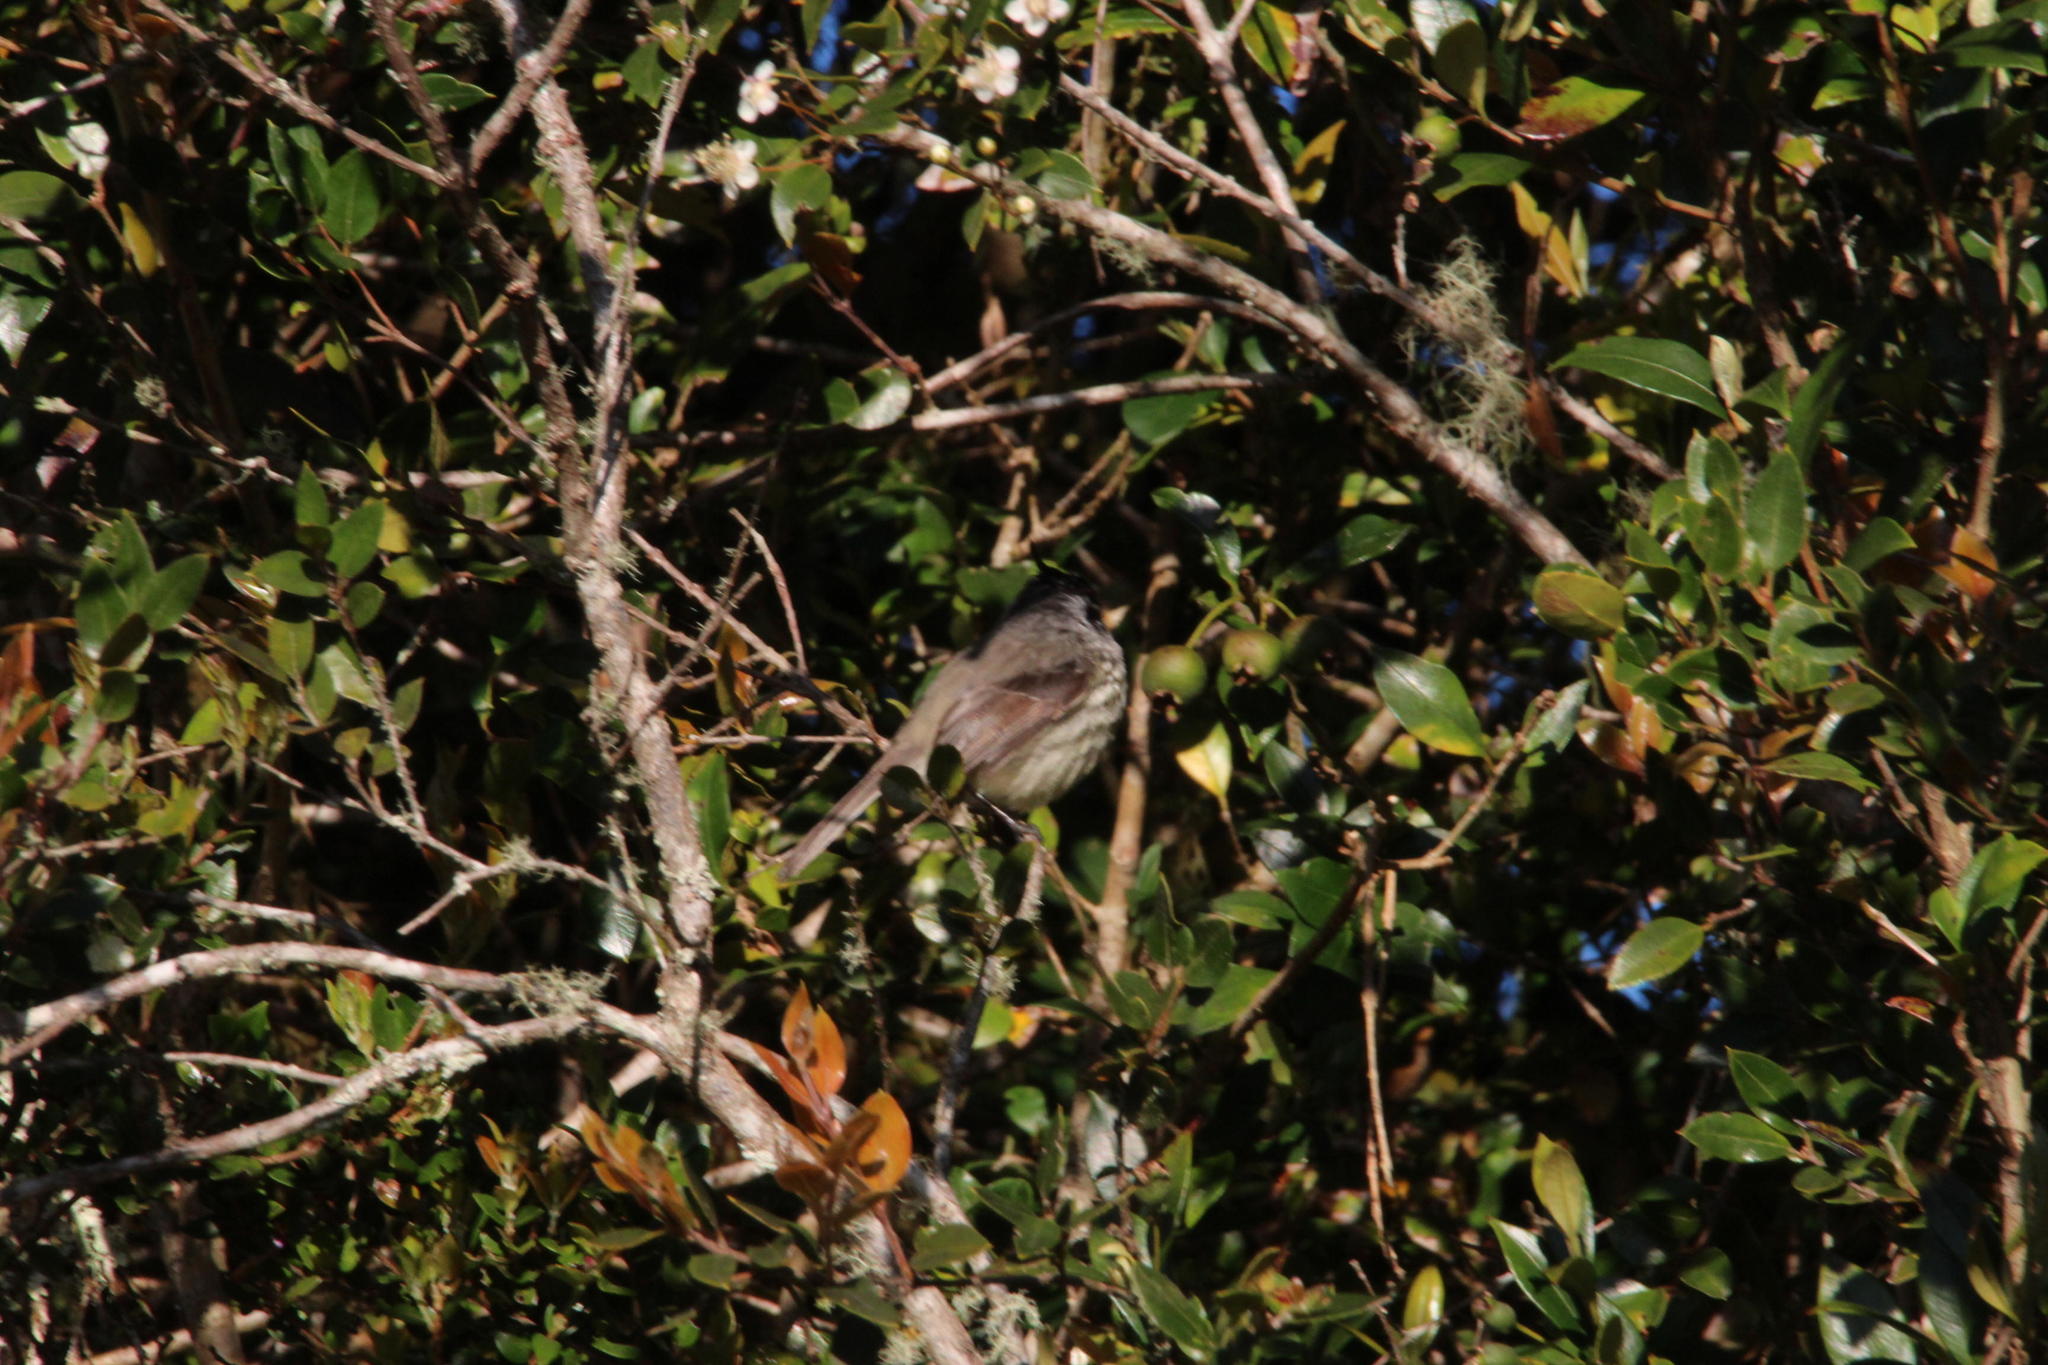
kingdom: Animalia
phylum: Chordata
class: Aves
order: Passeriformes
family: Tyrannidae
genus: Anairetes
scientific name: Anairetes parulus
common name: Tufted tit-tyrant
